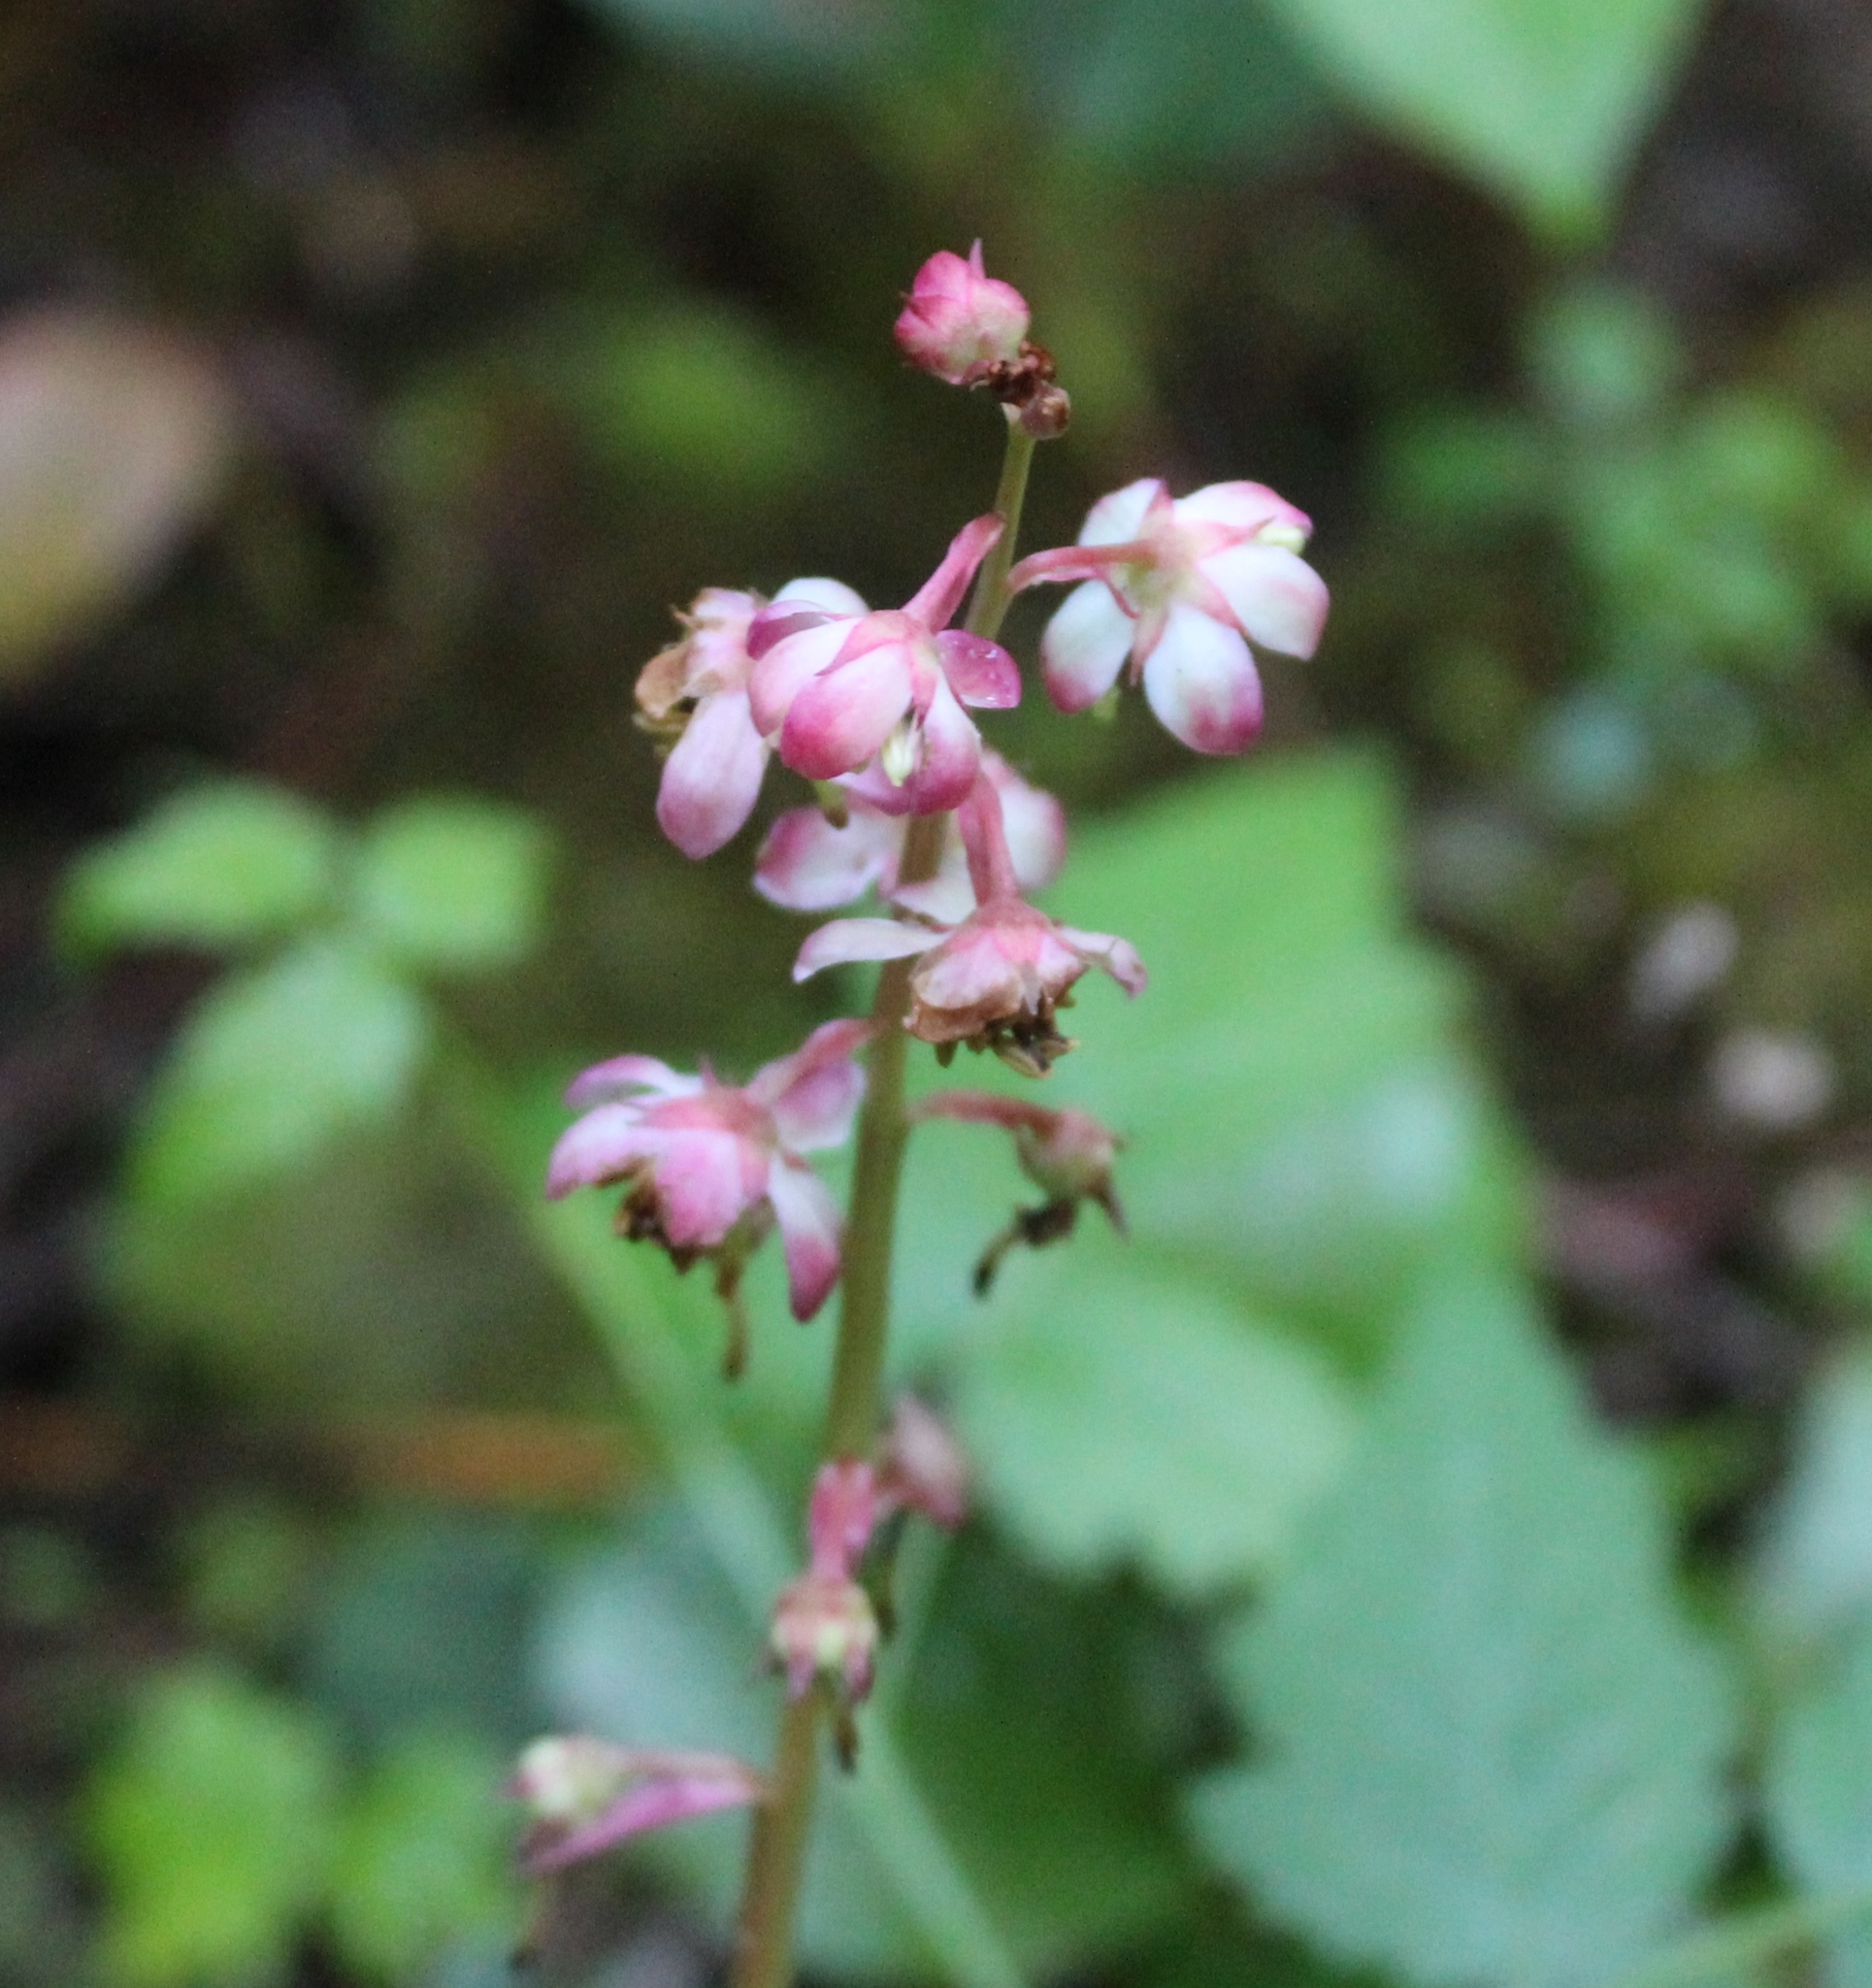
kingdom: Plantae
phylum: Tracheophyta
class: Magnoliopsida
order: Ericales
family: Ericaceae
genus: Pyrola
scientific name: Pyrola asarifolia
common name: Bog wintergreen
